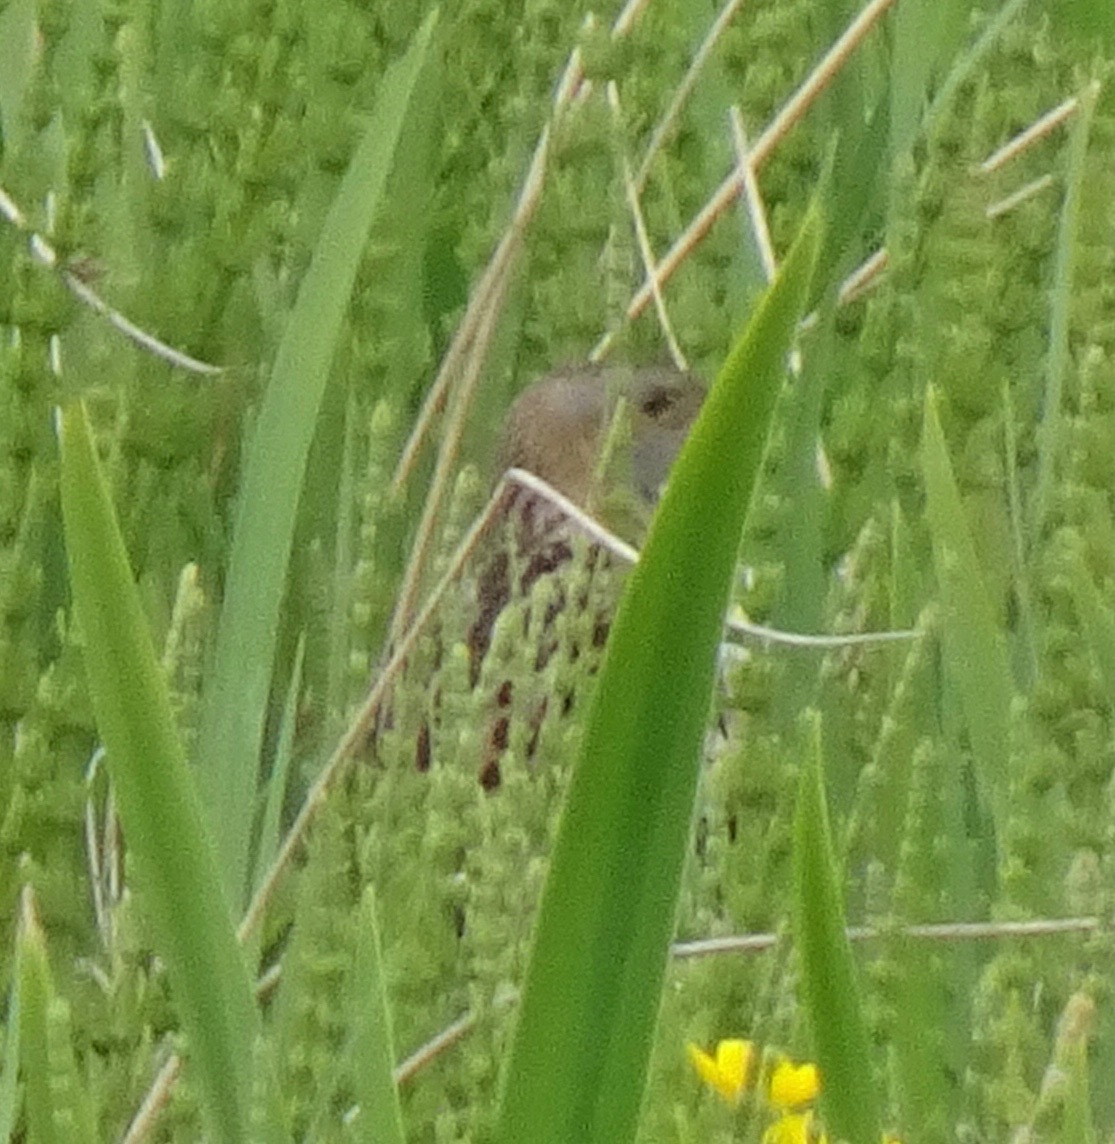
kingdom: Animalia
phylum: Chordata
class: Aves
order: Gruiformes
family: Rallidae
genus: Crex
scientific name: Crex crex
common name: Corn crake
